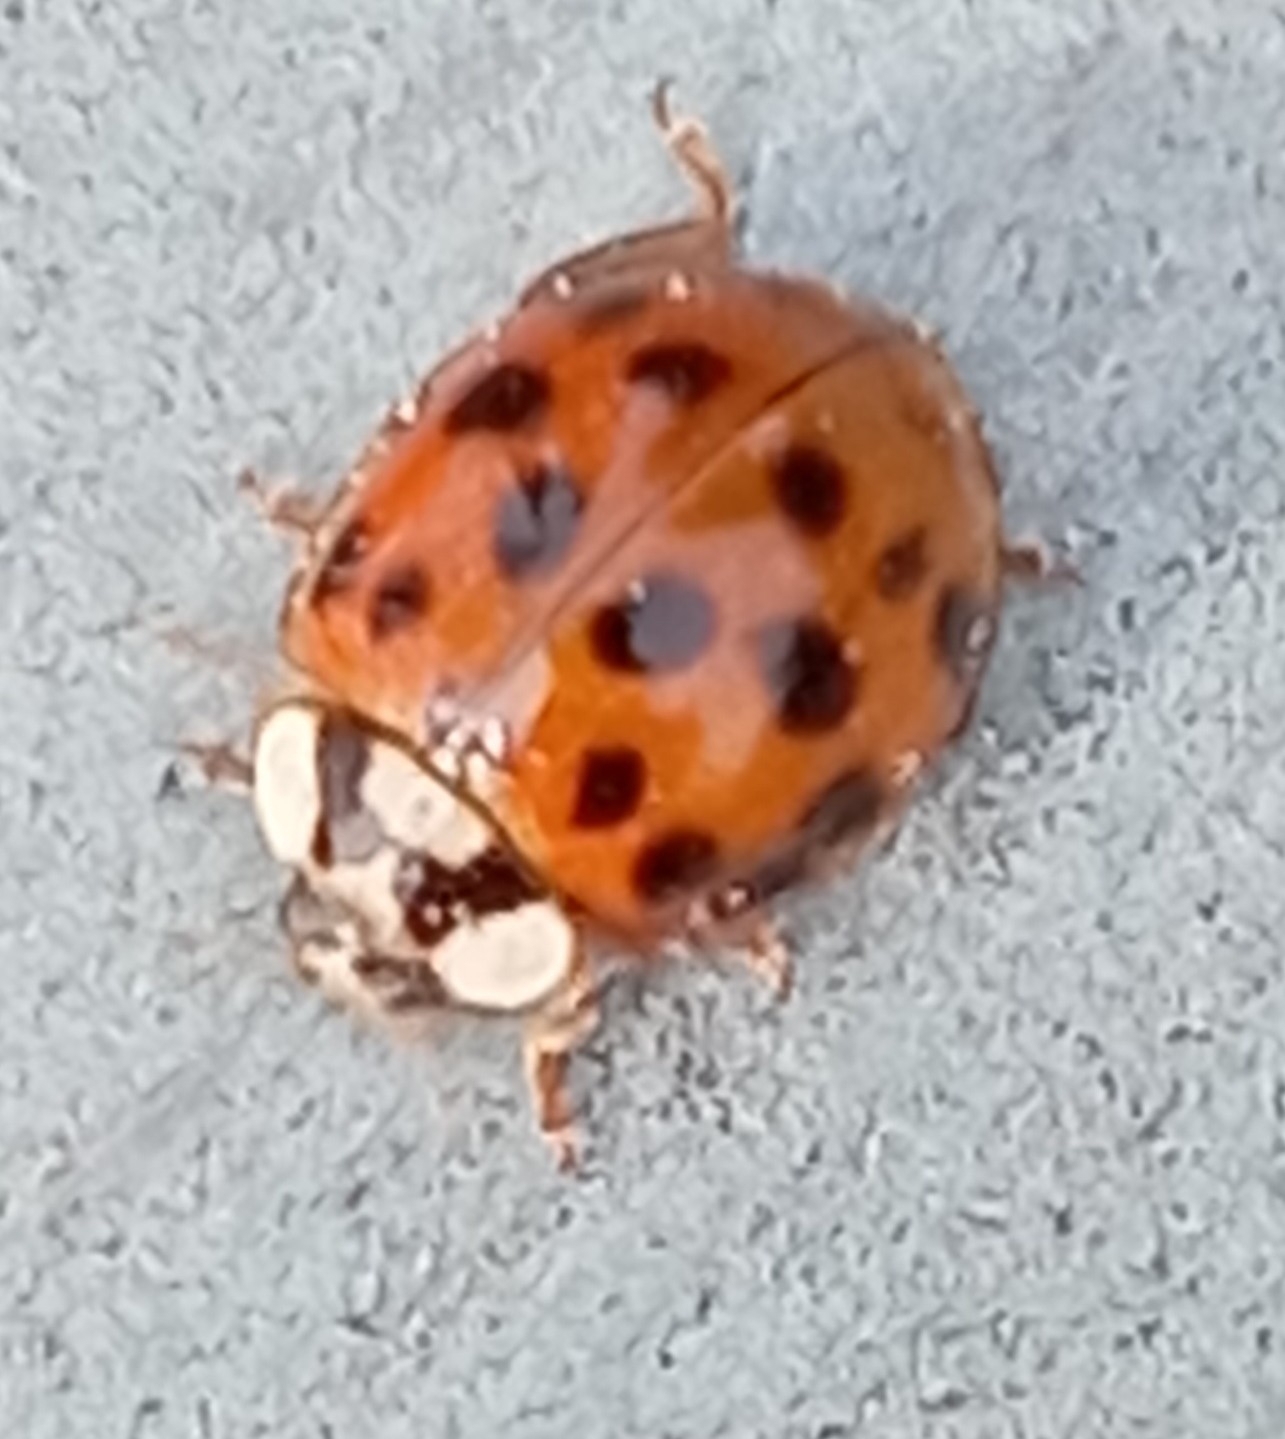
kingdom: Animalia
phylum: Arthropoda
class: Insecta
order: Coleoptera
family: Coccinellidae
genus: Harmonia
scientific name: Harmonia axyridis
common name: Harlequin ladybird
